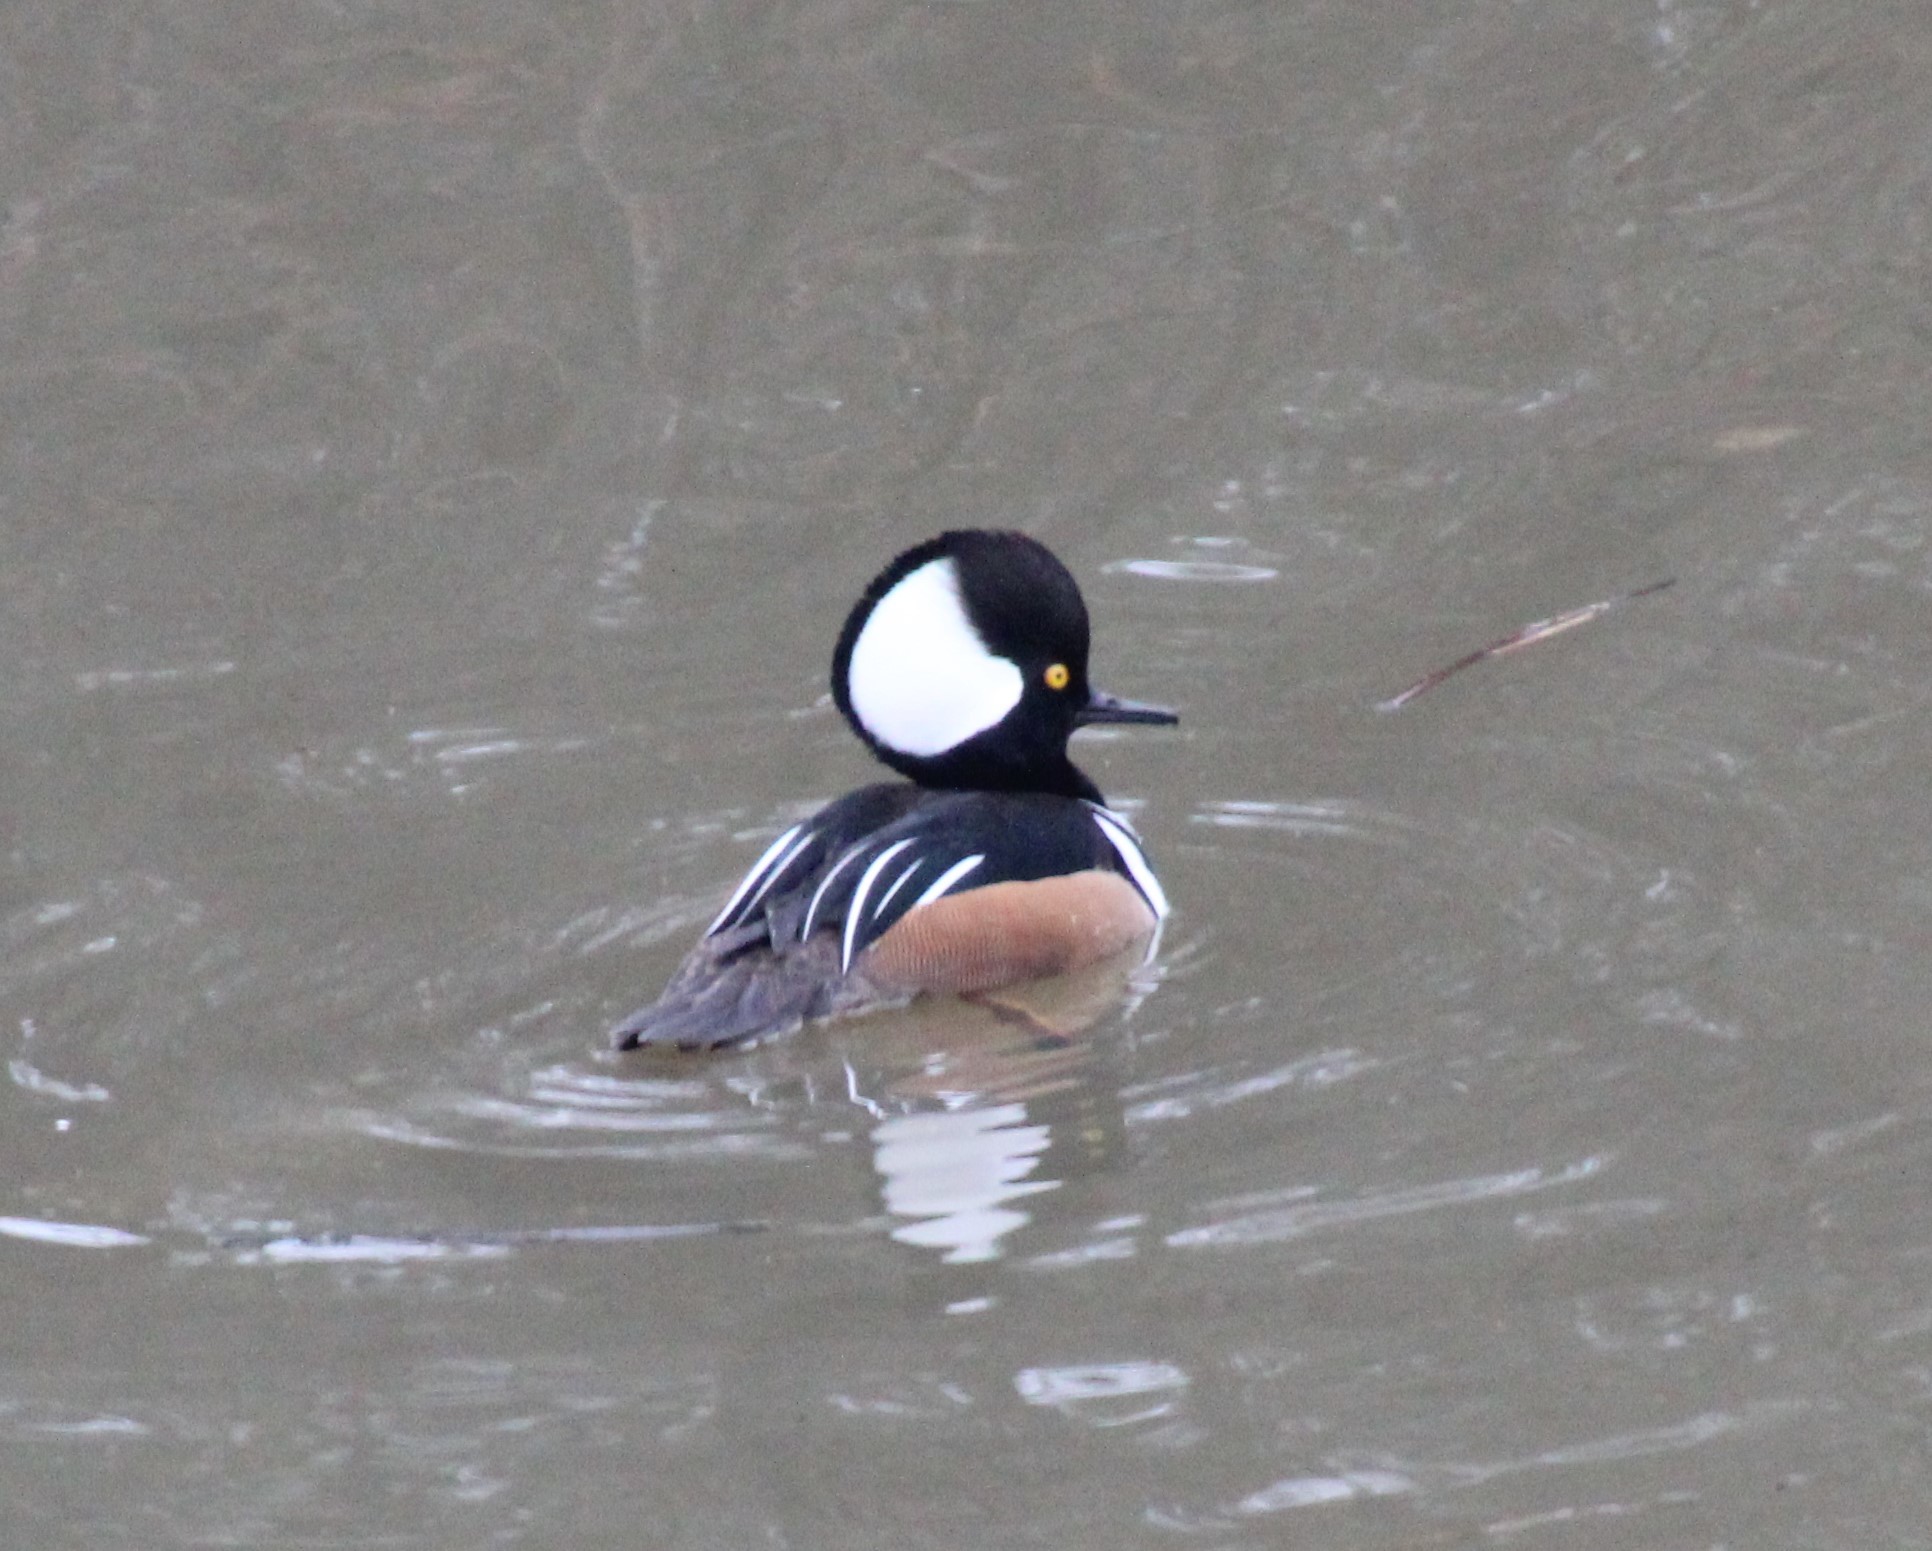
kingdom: Animalia
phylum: Chordata
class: Aves
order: Anseriformes
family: Anatidae
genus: Lophodytes
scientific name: Lophodytes cucullatus
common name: Hooded merganser
